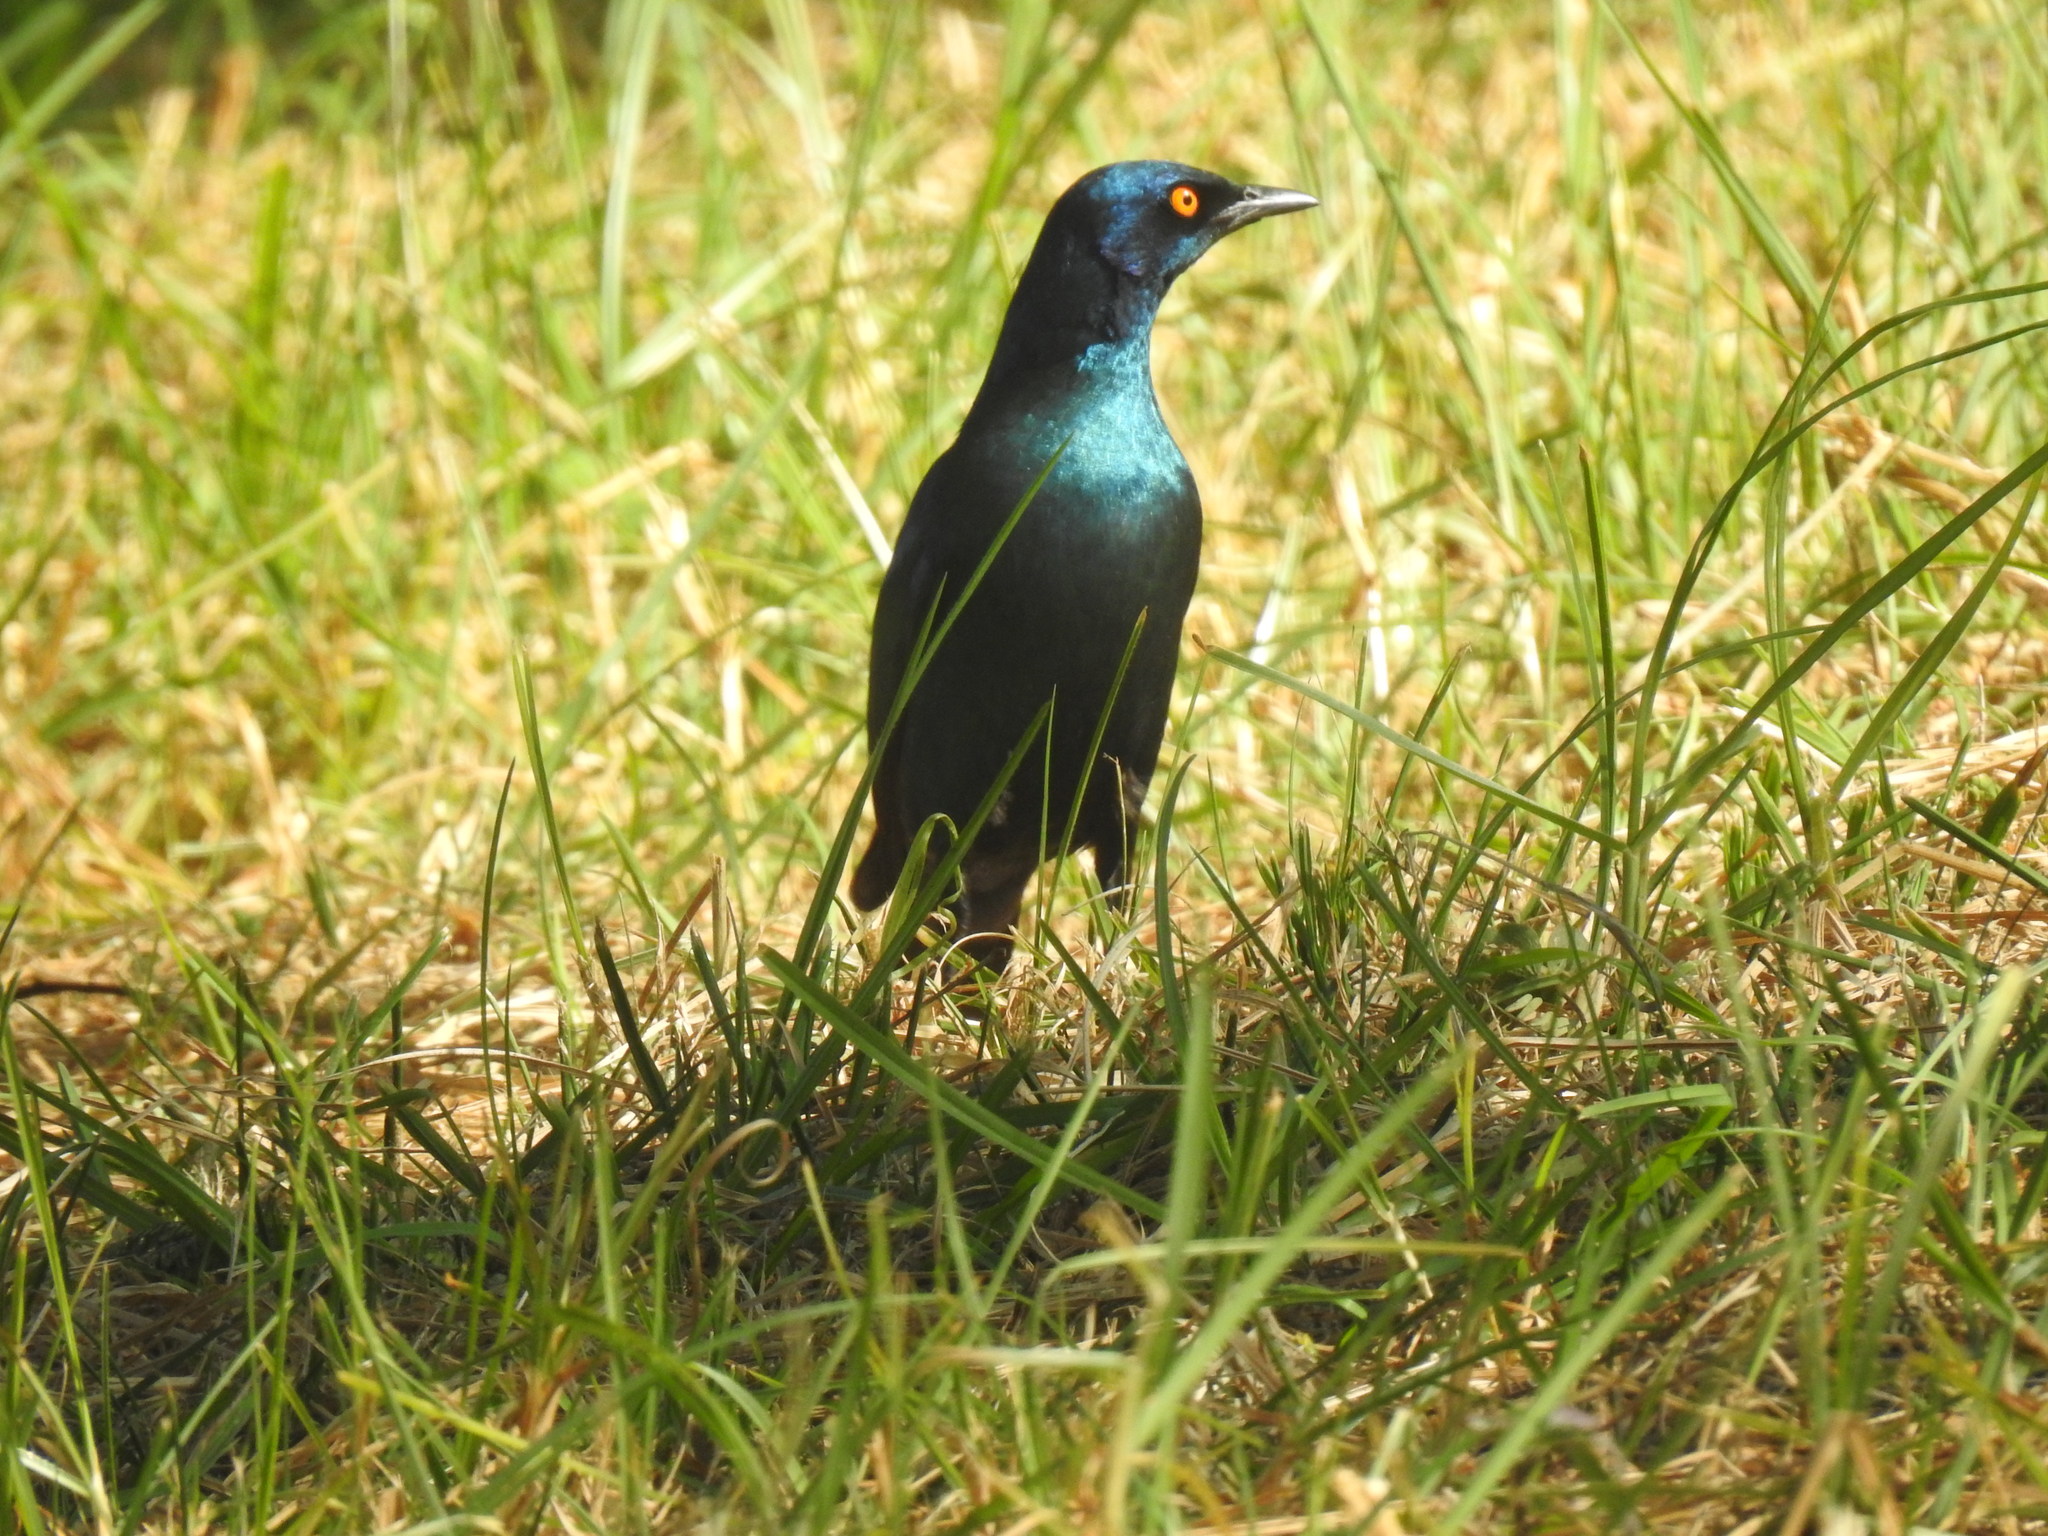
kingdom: Animalia
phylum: Chordata
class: Aves
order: Passeriformes
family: Sturnidae
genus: Lamprotornis
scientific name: Lamprotornis nitens
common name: Cape starling
